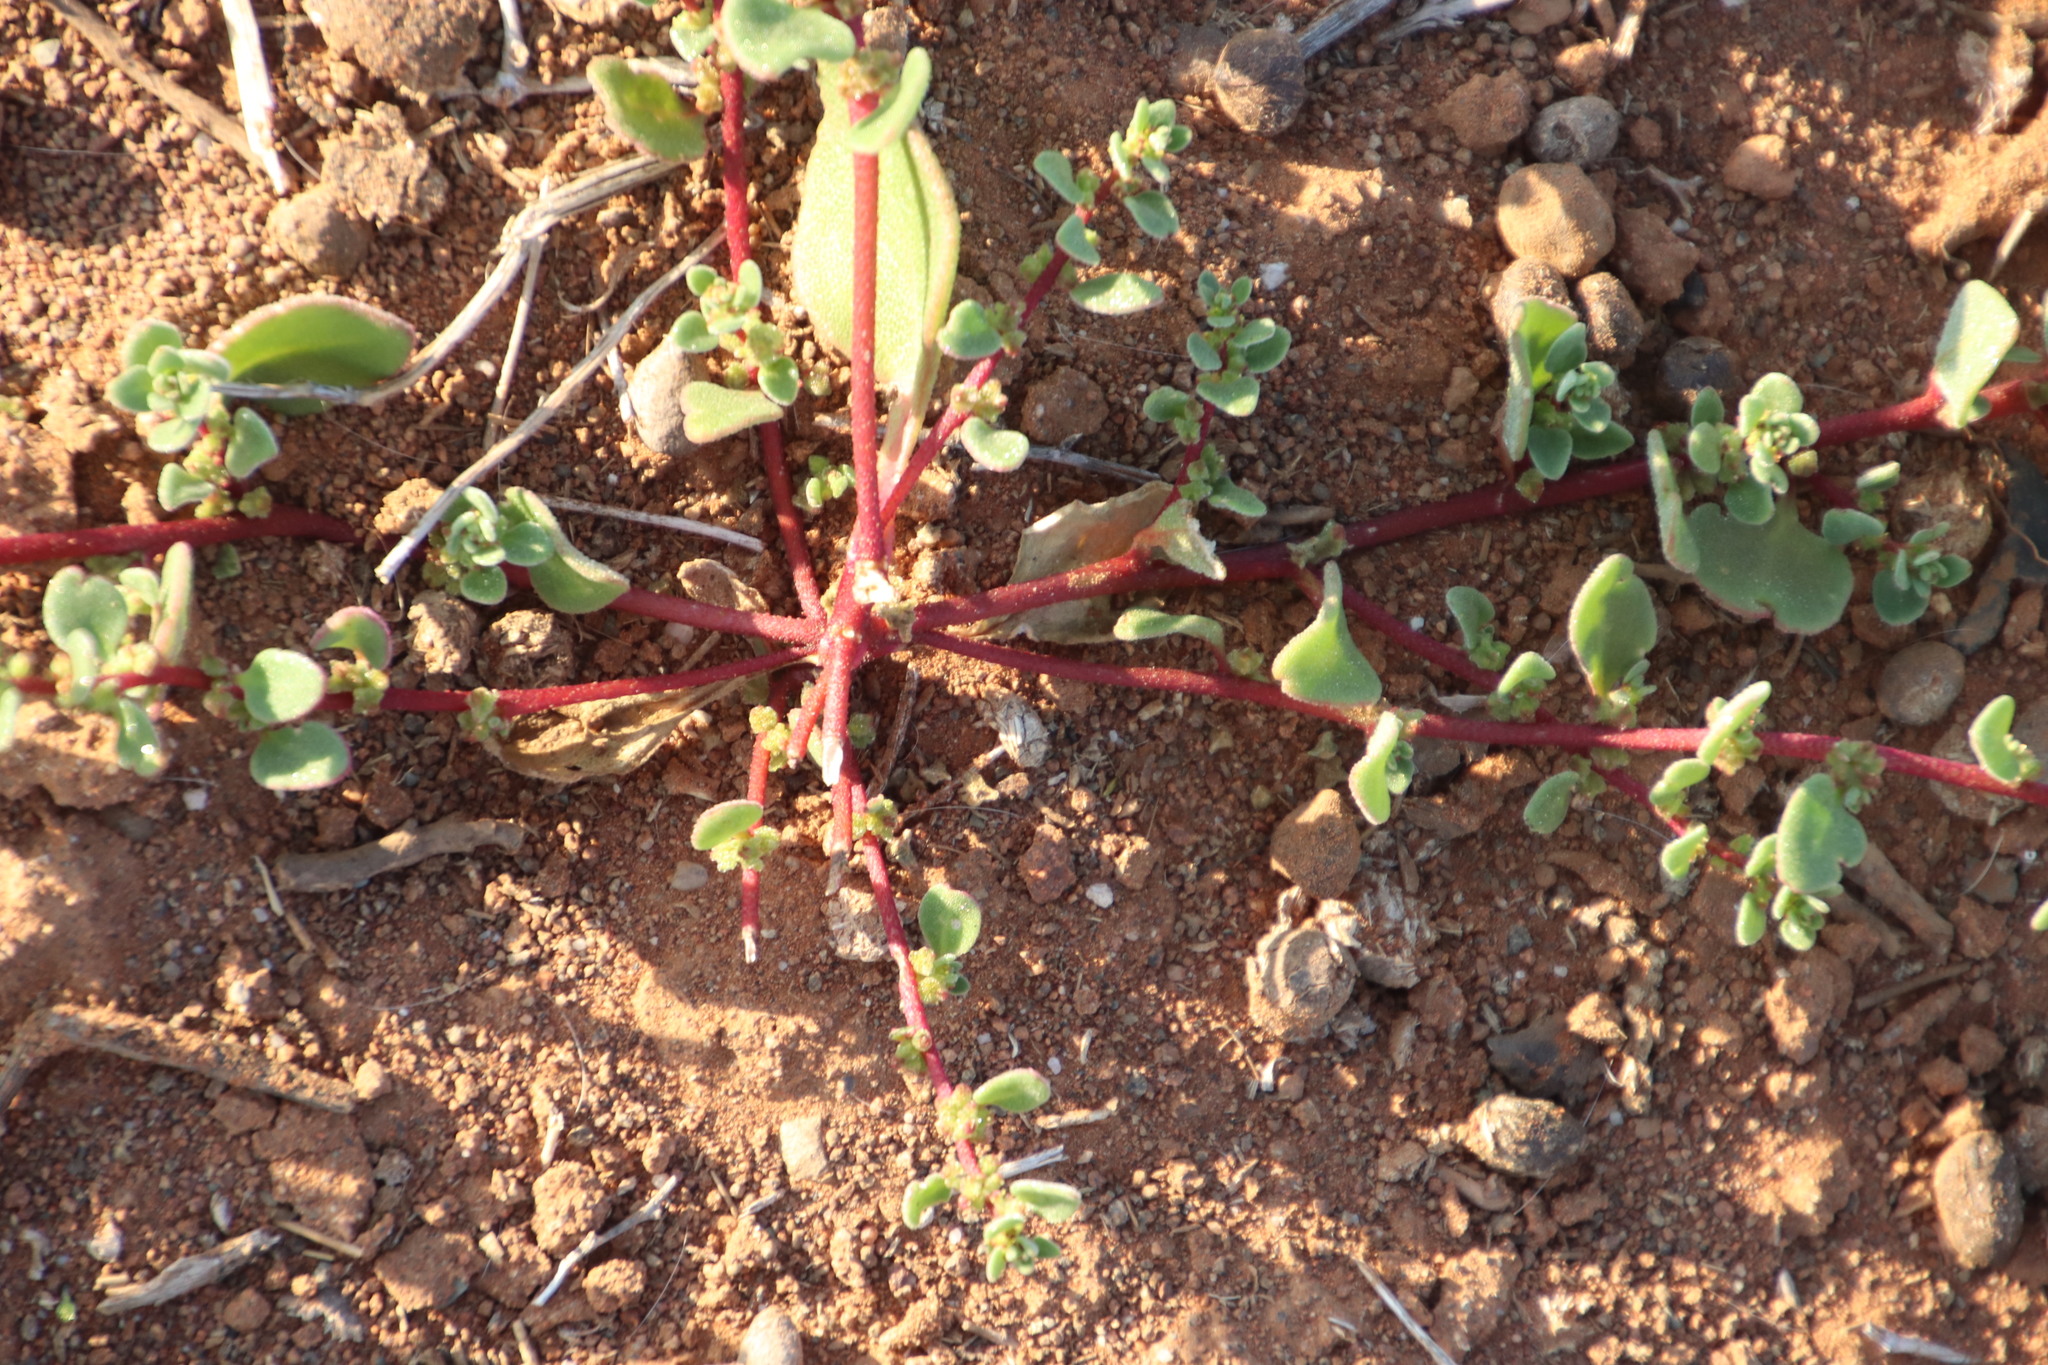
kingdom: Plantae
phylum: Tracheophyta
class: Magnoliopsida
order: Caryophyllales
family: Aizoaceae
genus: Tetragonia
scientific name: Tetragonia microptera
